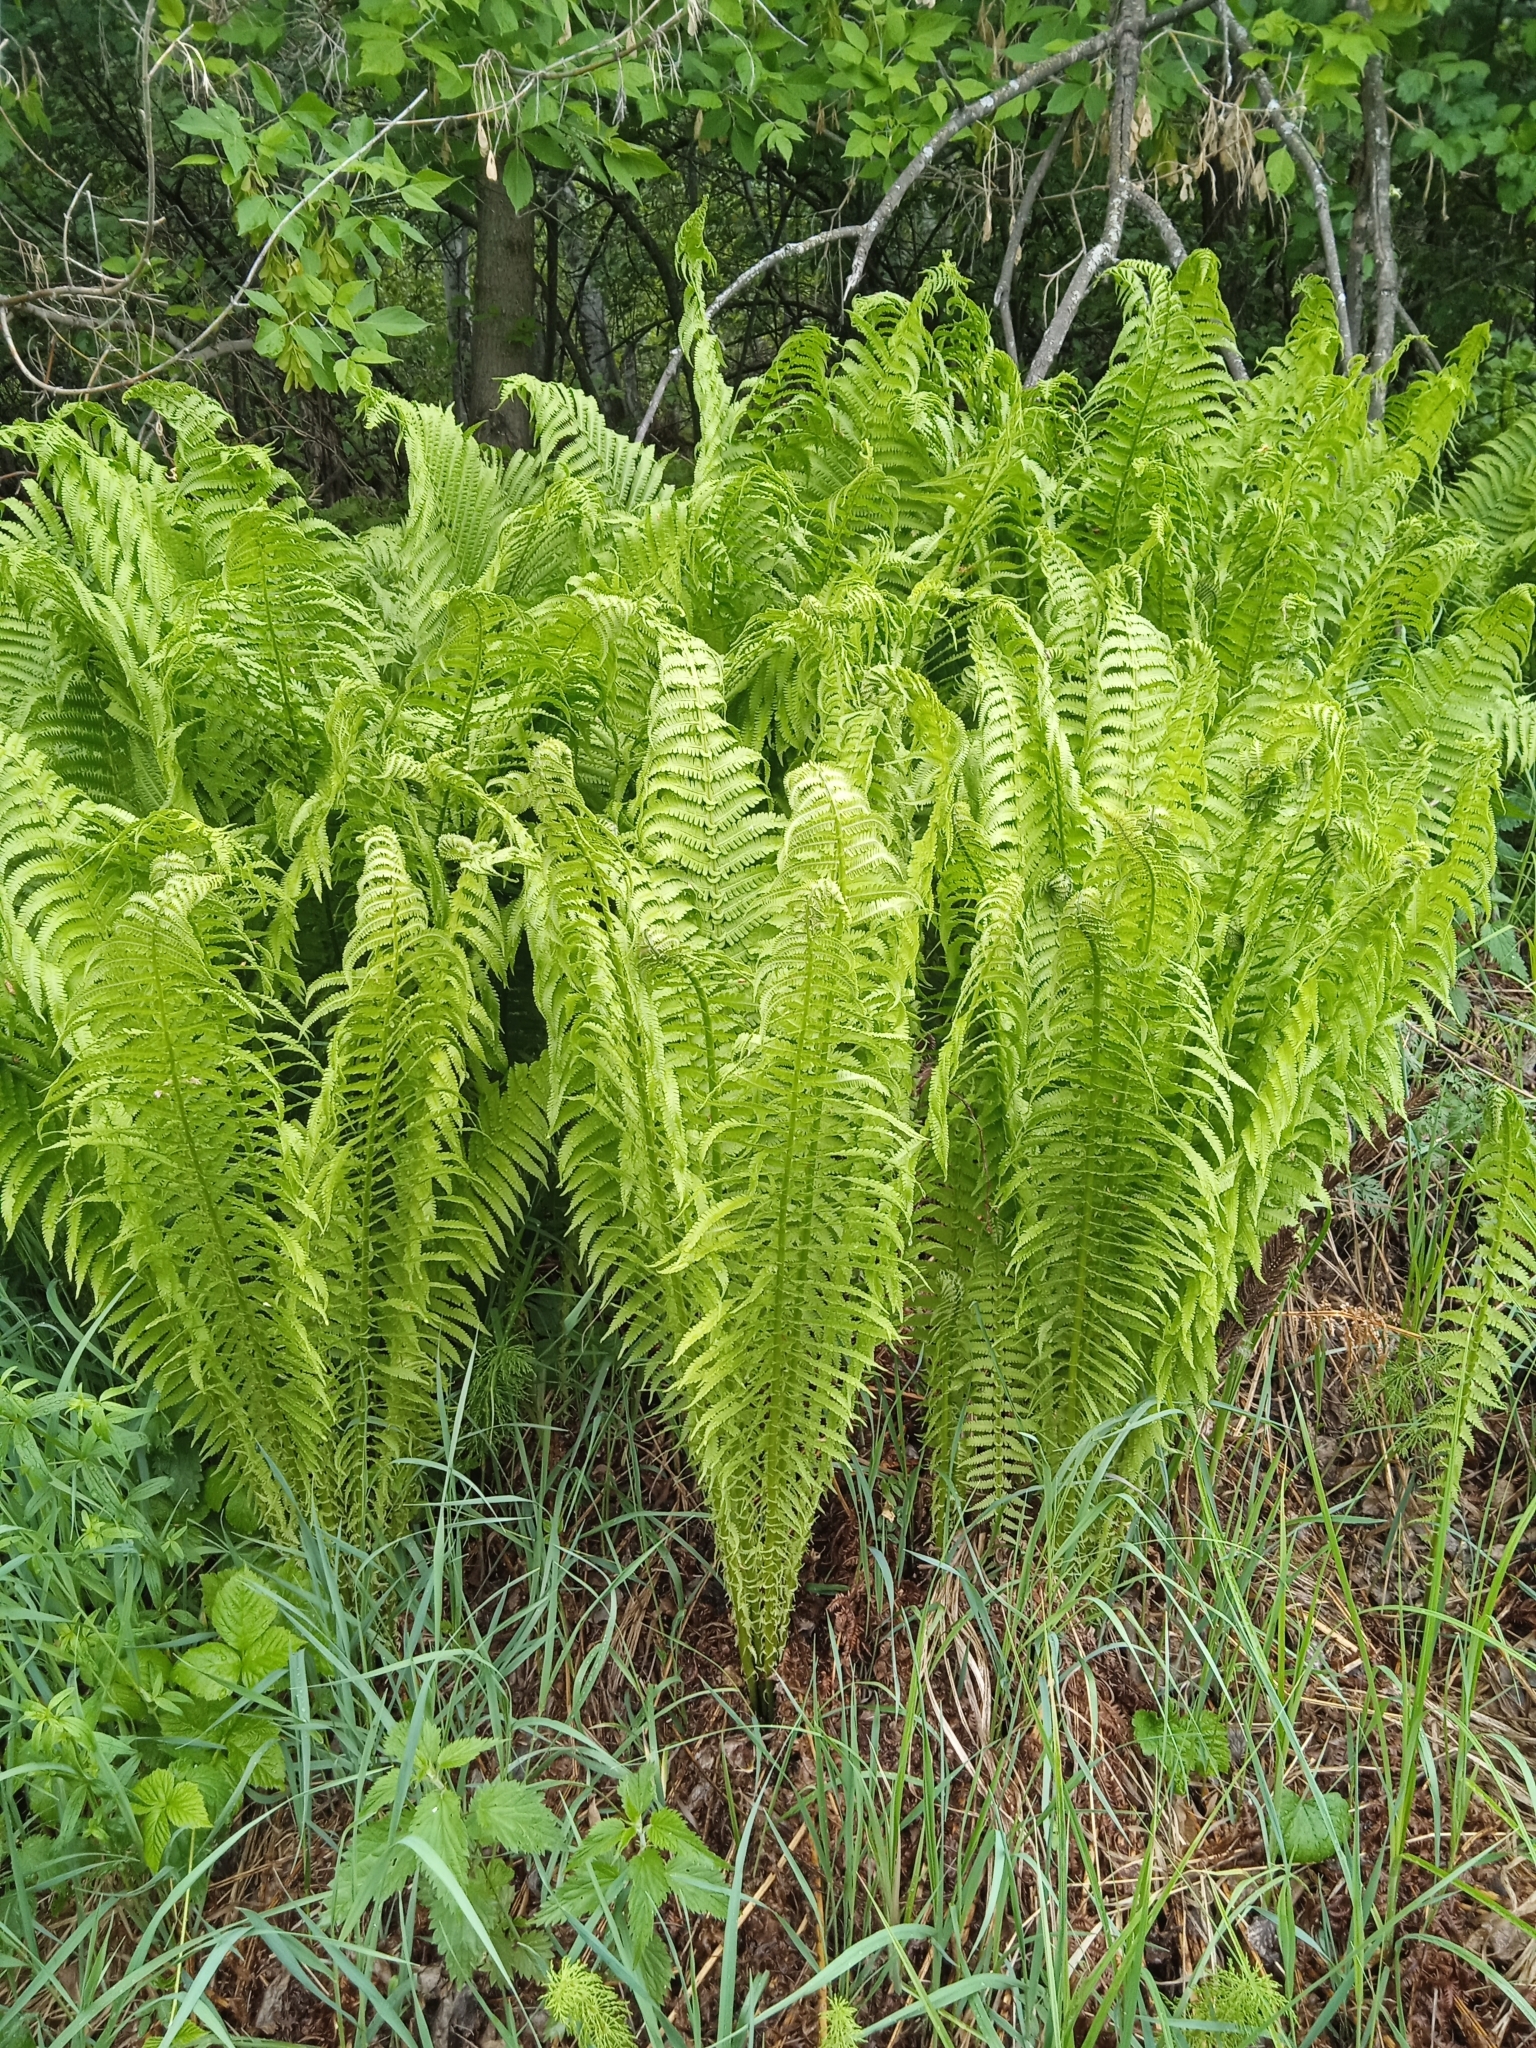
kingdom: Plantae
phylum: Tracheophyta
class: Polypodiopsida
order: Polypodiales
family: Onocleaceae
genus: Matteuccia
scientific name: Matteuccia struthiopteris
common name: Ostrich fern
